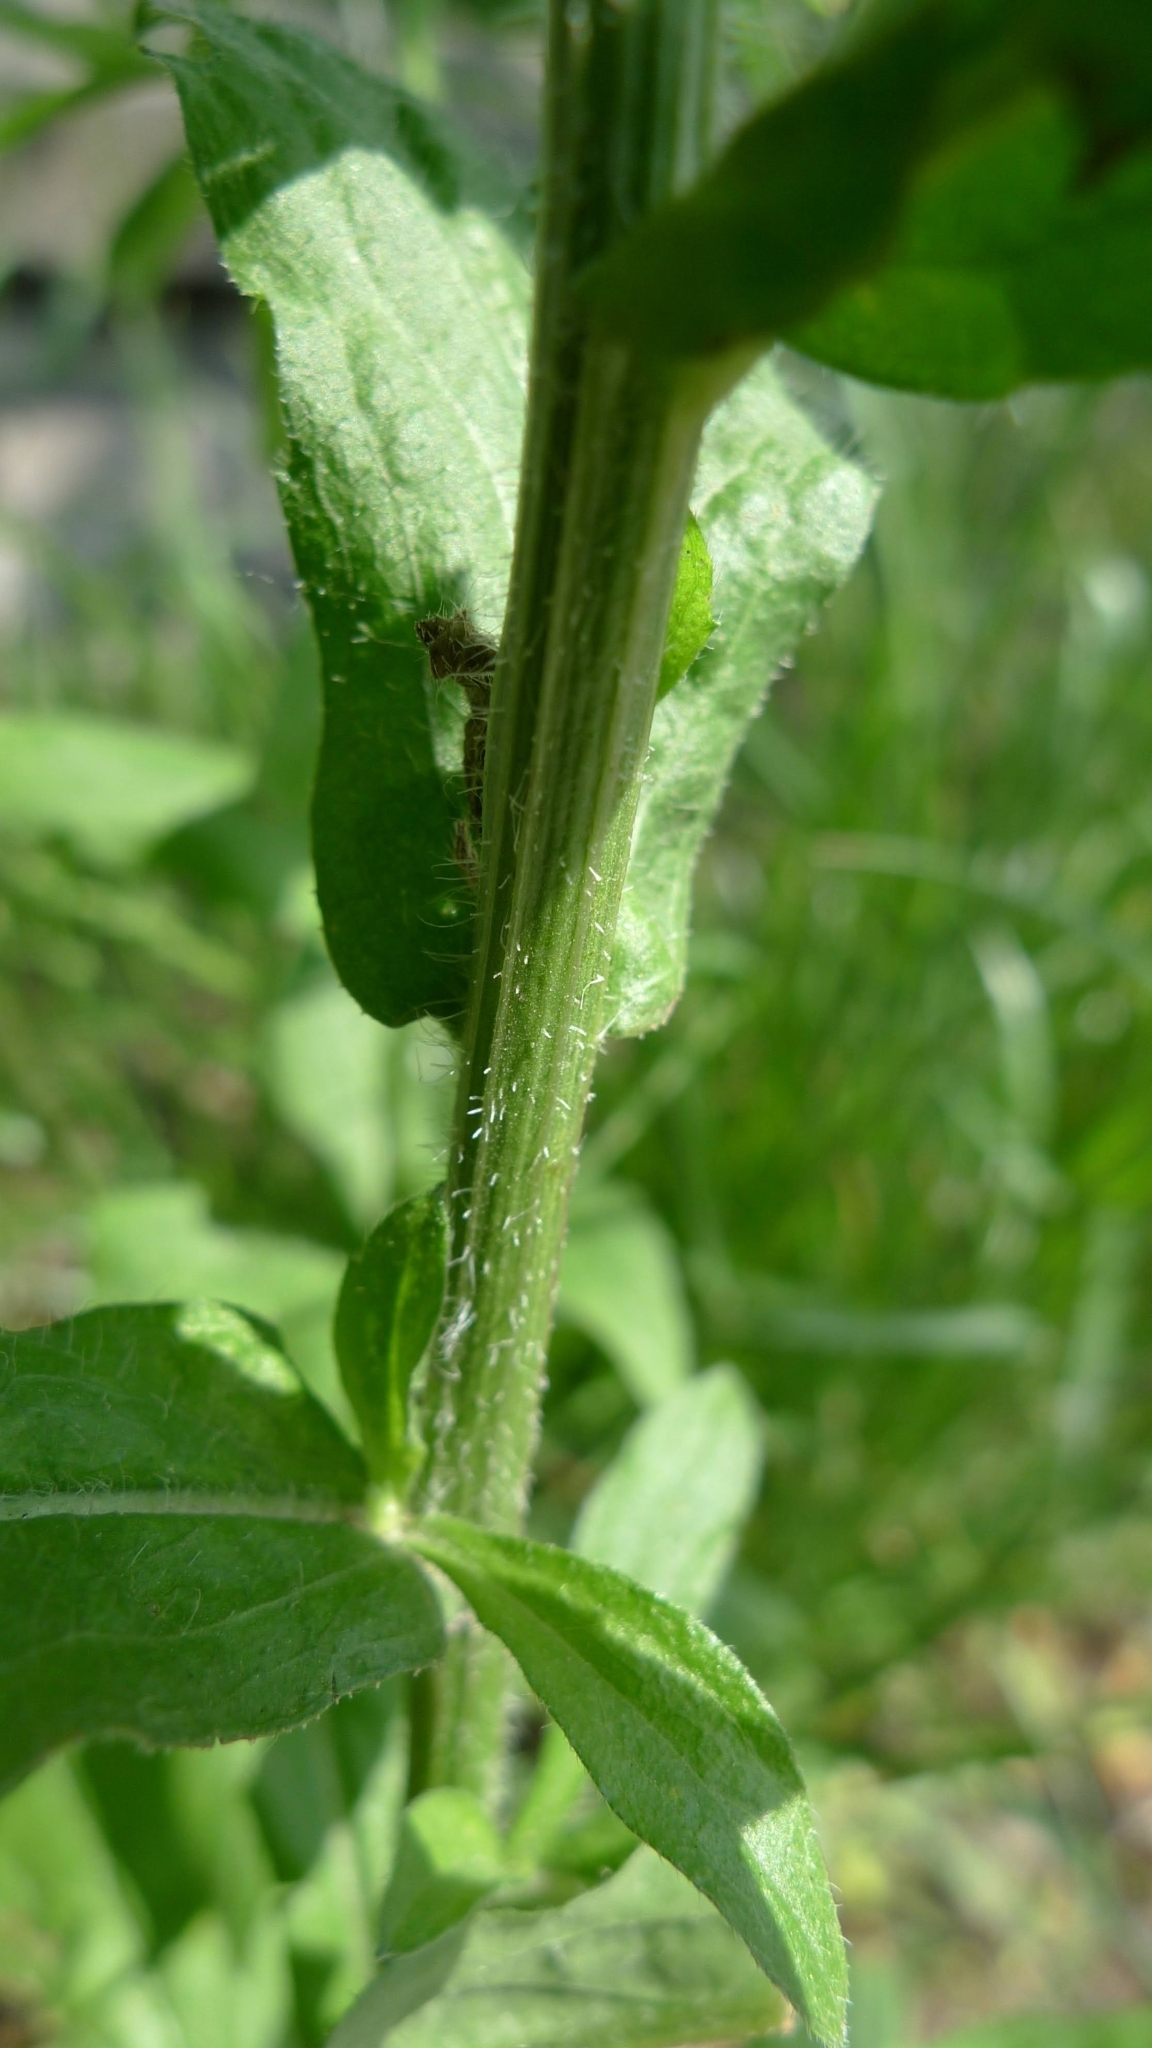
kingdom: Plantae
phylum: Tracheophyta
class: Magnoliopsida
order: Asterales
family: Asteraceae
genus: Erigeron
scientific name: Erigeron annuus
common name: Tall fleabane
